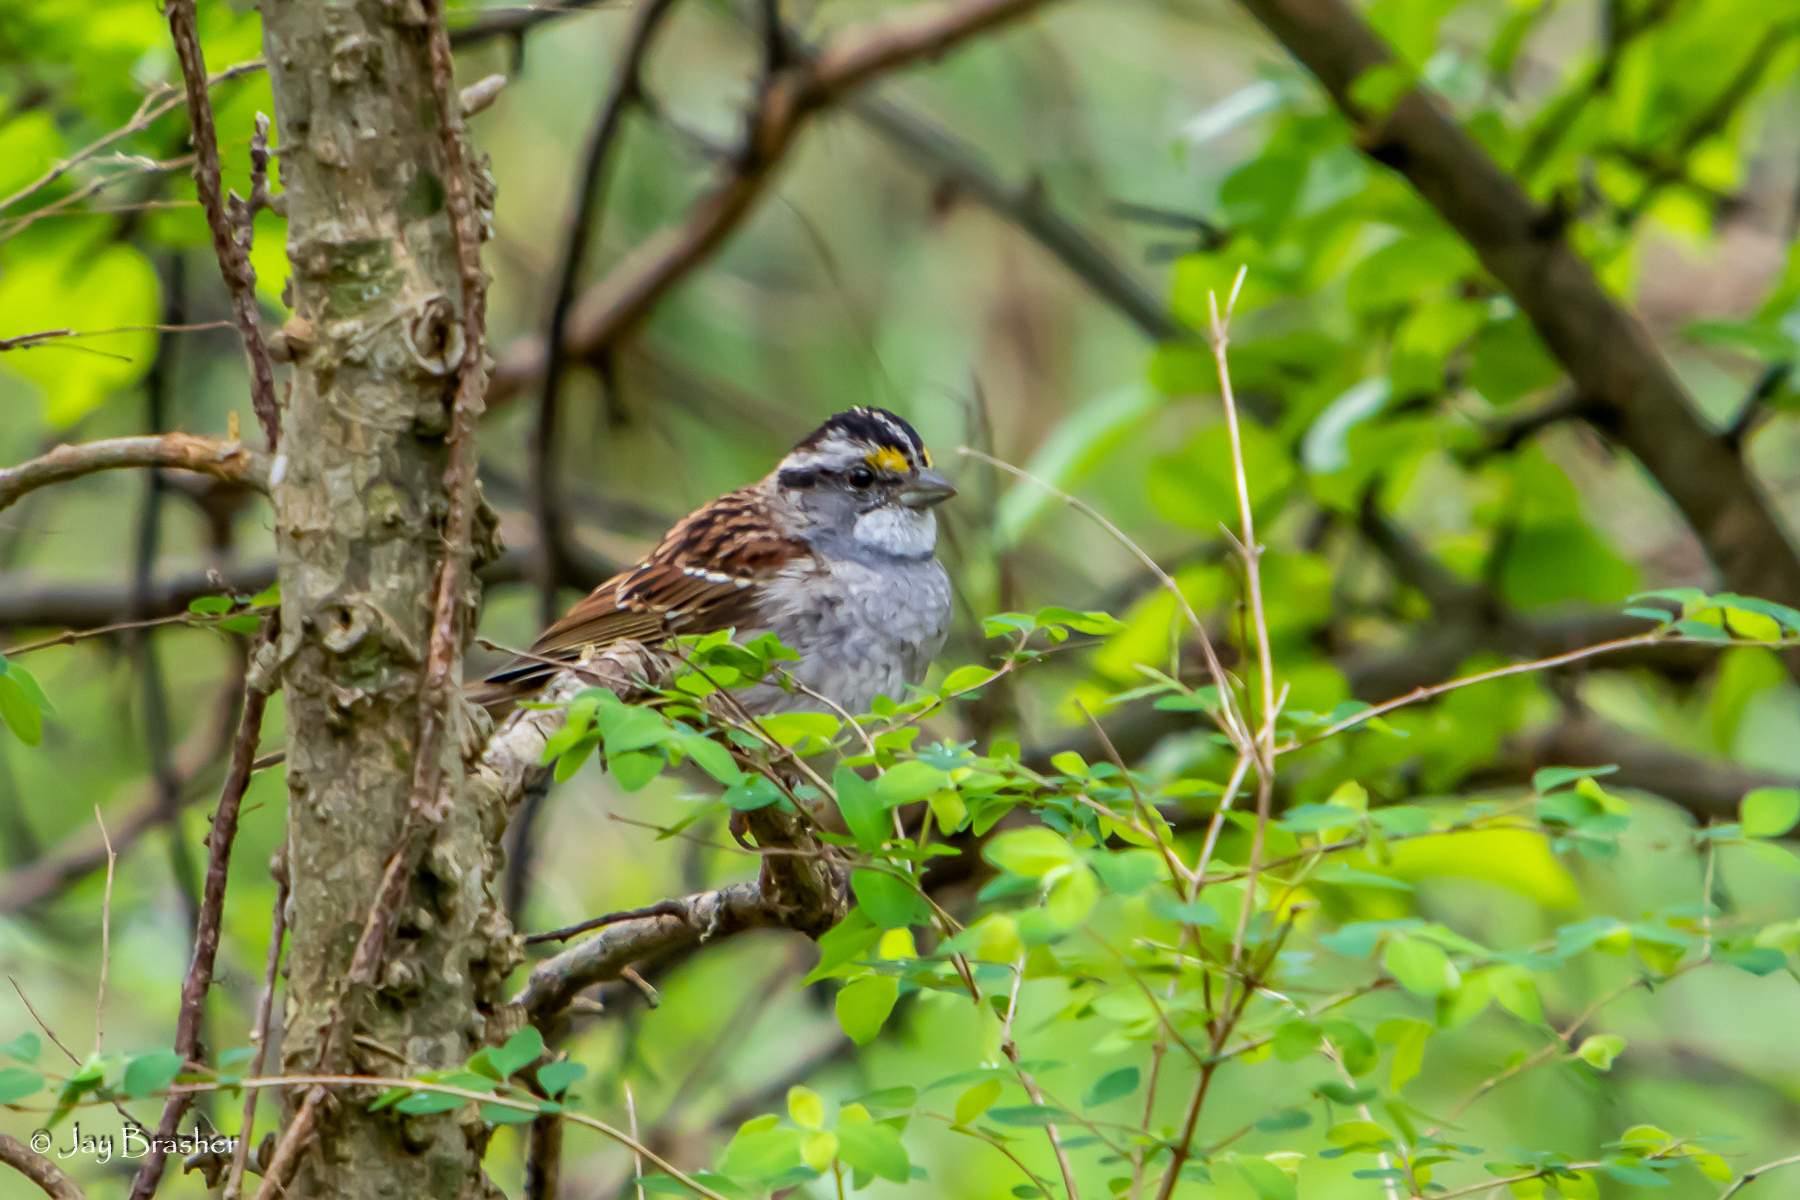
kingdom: Animalia
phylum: Chordata
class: Aves
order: Passeriformes
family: Passerellidae
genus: Zonotrichia
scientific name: Zonotrichia albicollis
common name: White-throated sparrow
